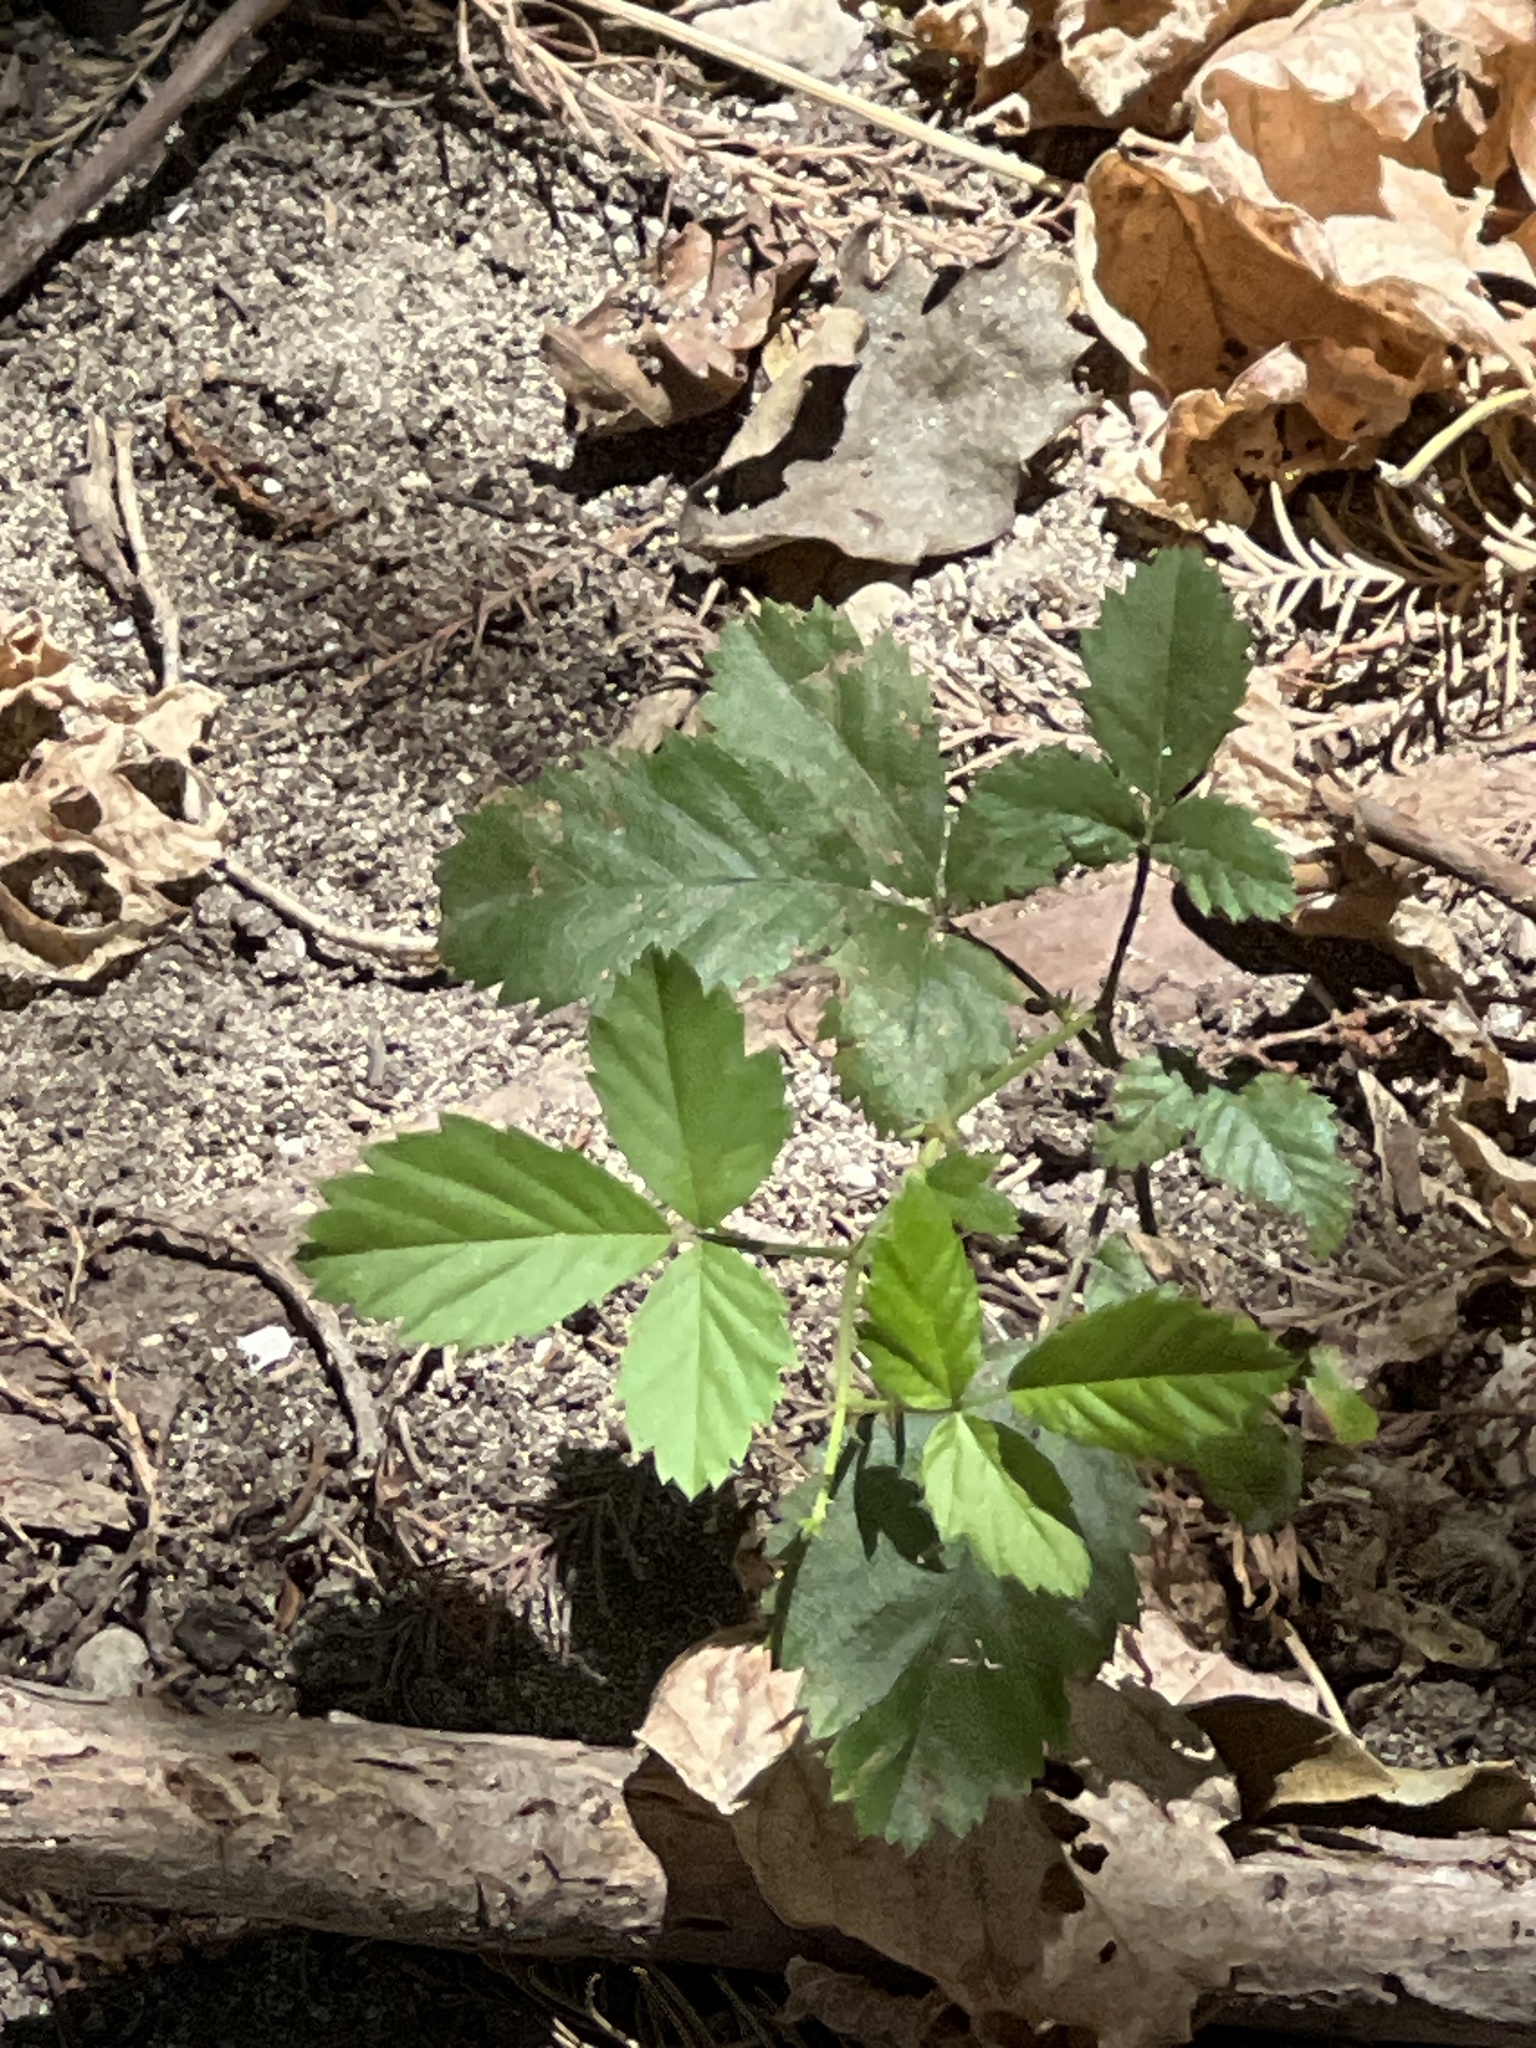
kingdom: Plantae
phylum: Tracheophyta
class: Magnoliopsida
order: Rosales
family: Rosaceae
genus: Rubus
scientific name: Rubus trivialis
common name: Southern dewberry
